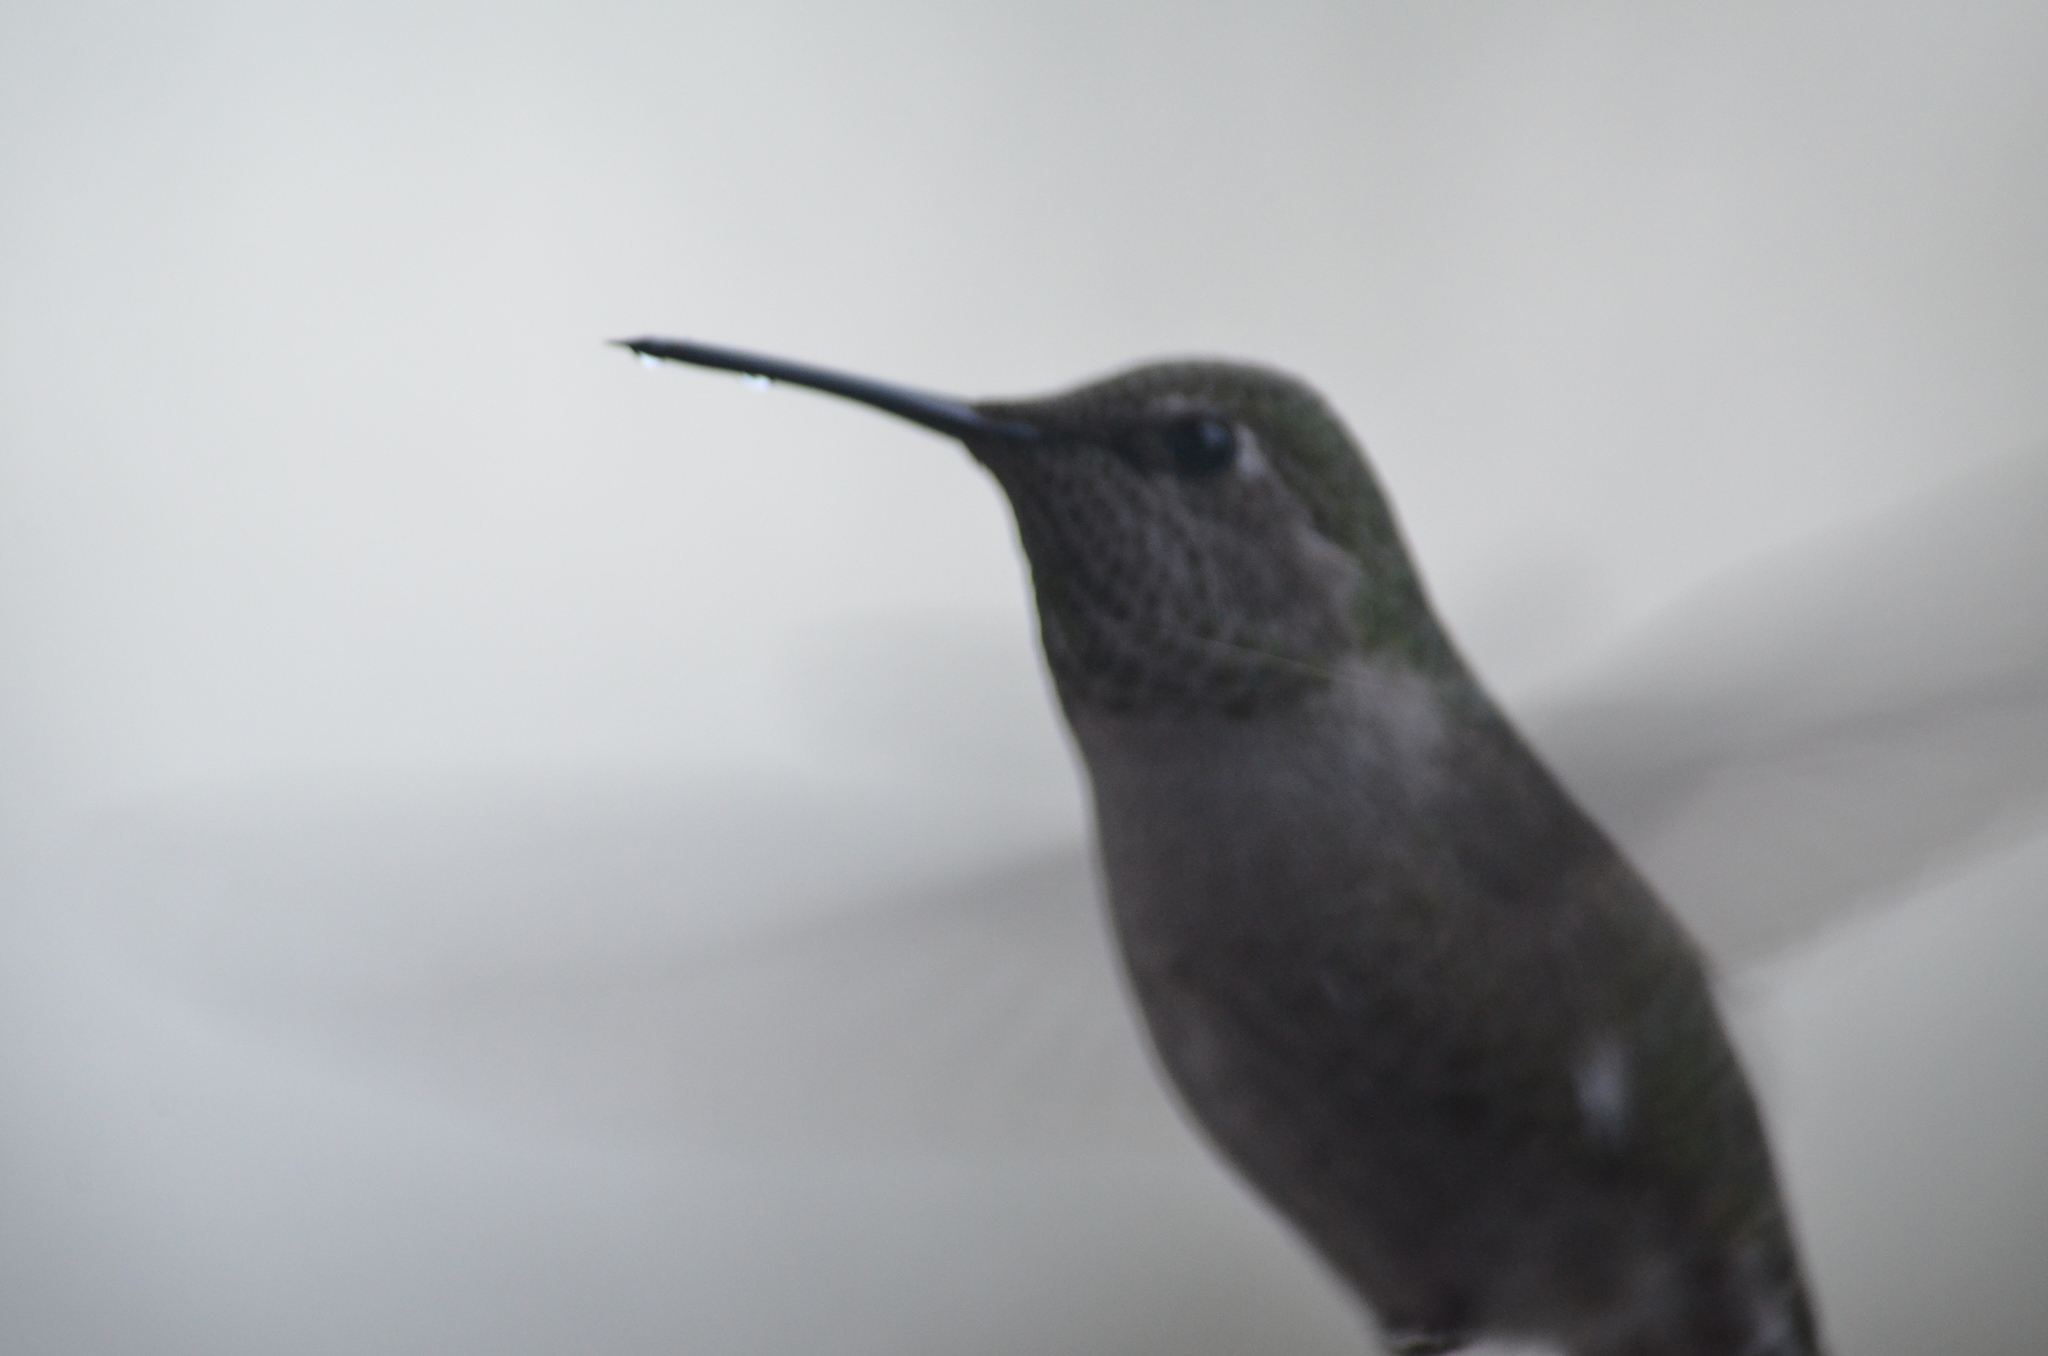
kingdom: Animalia
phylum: Chordata
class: Aves
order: Apodiformes
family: Trochilidae
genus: Calypte
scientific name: Calypte anna
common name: Anna's hummingbird
